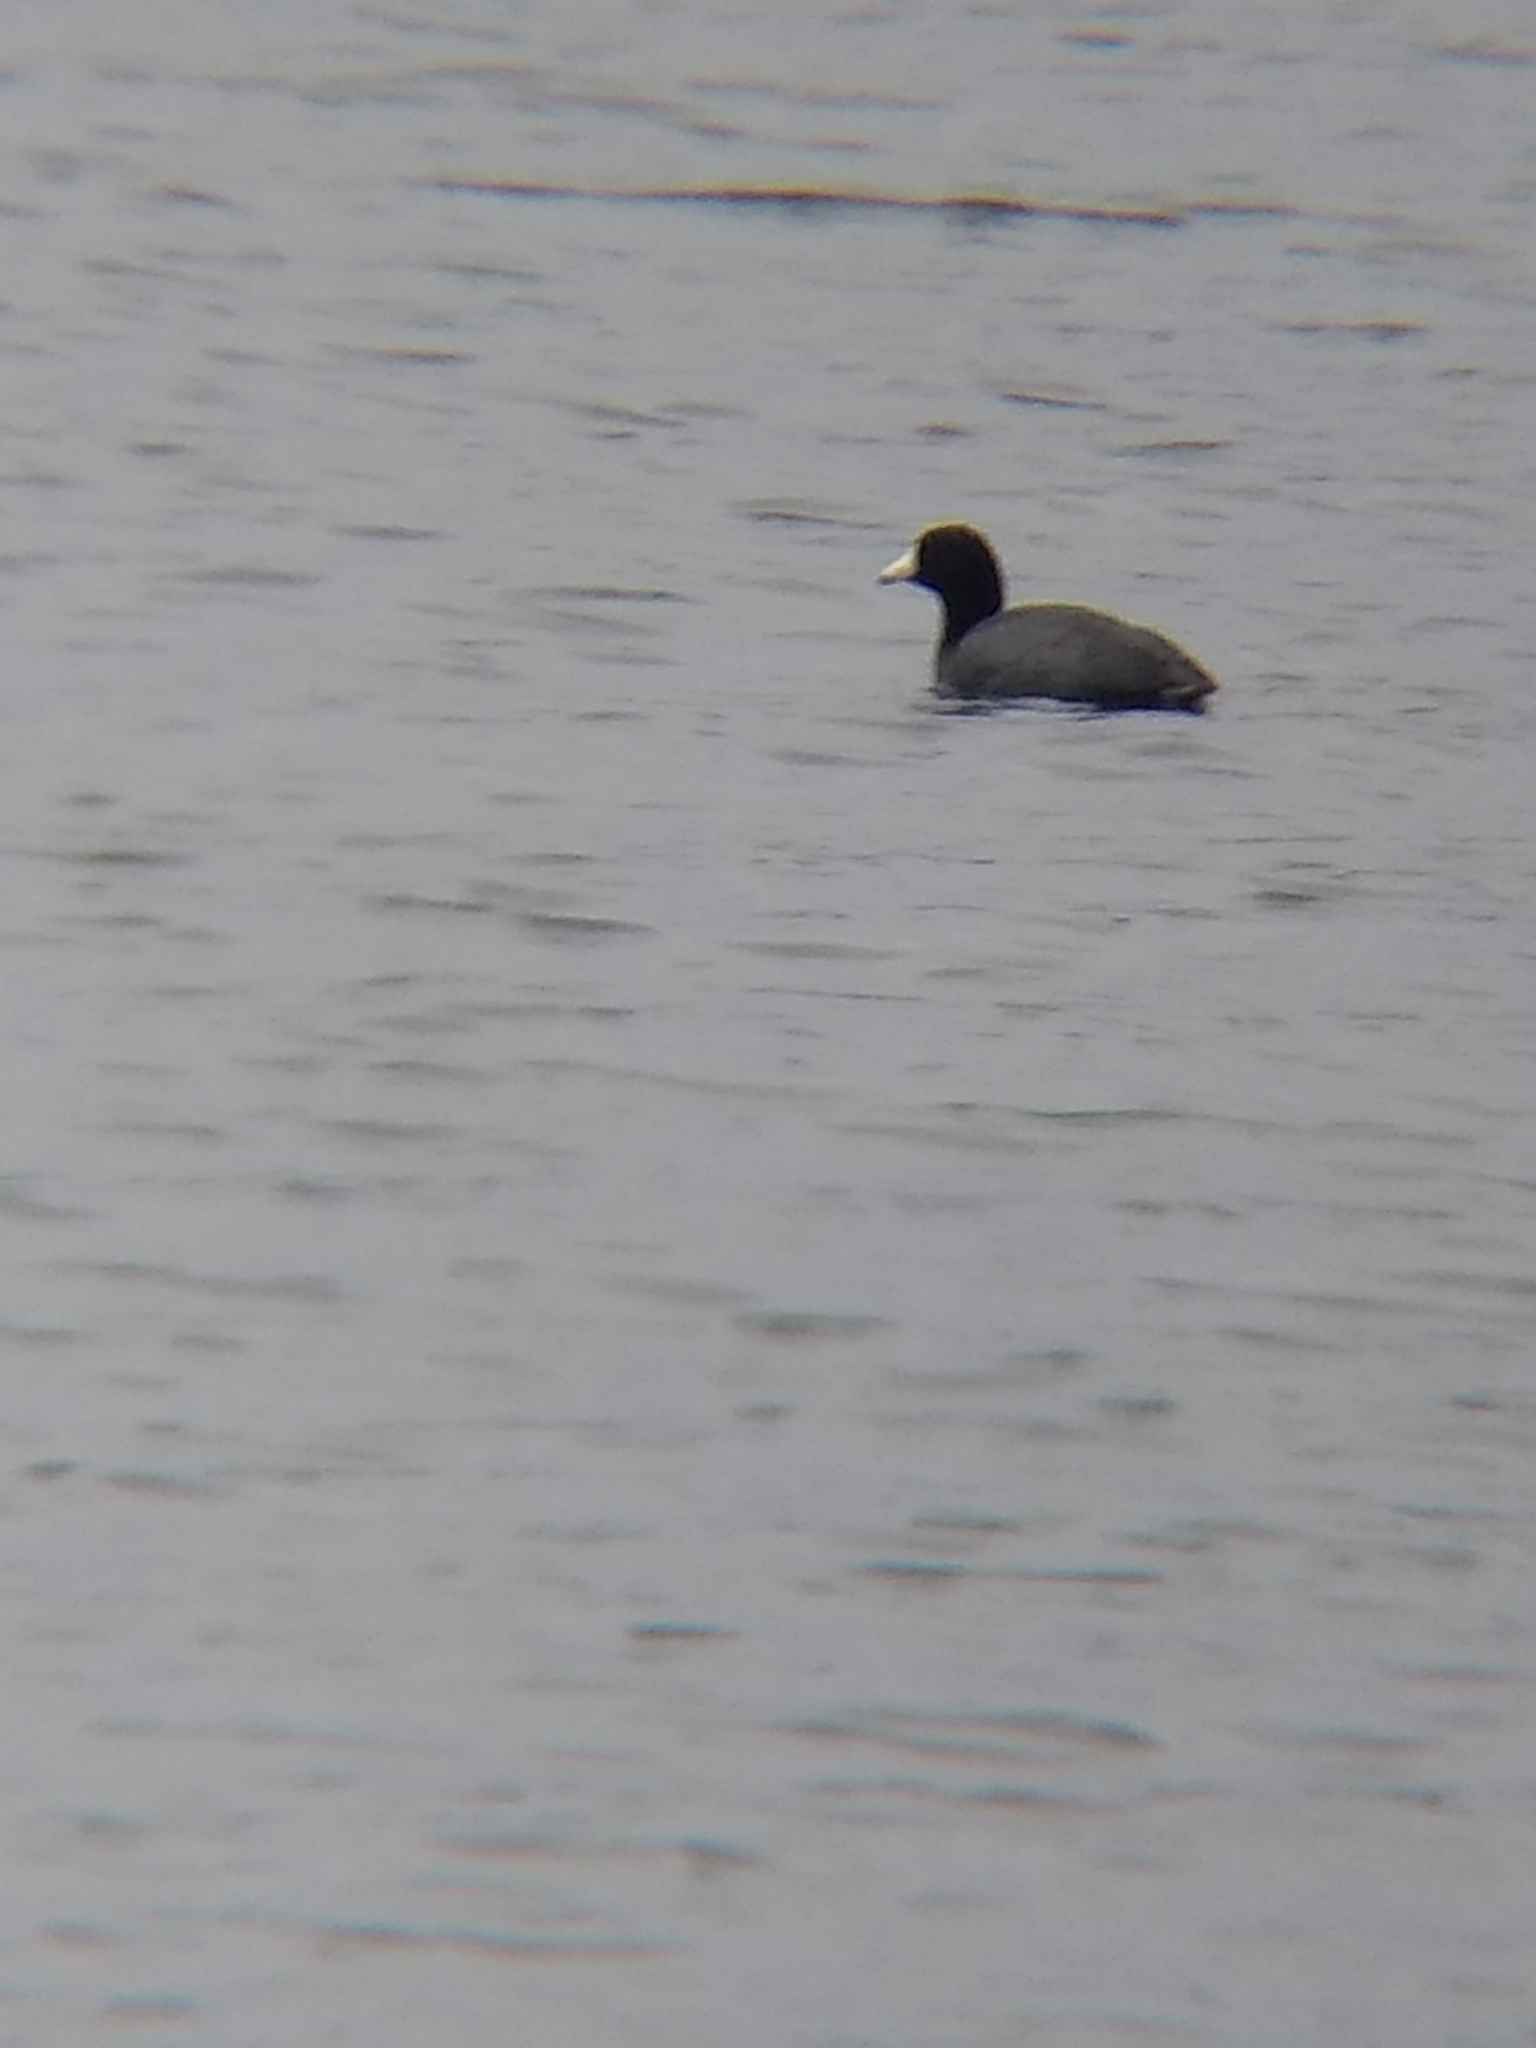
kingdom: Animalia
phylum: Chordata
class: Aves
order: Gruiformes
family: Rallidae
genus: Fulica
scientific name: Fulica americana
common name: American coot
